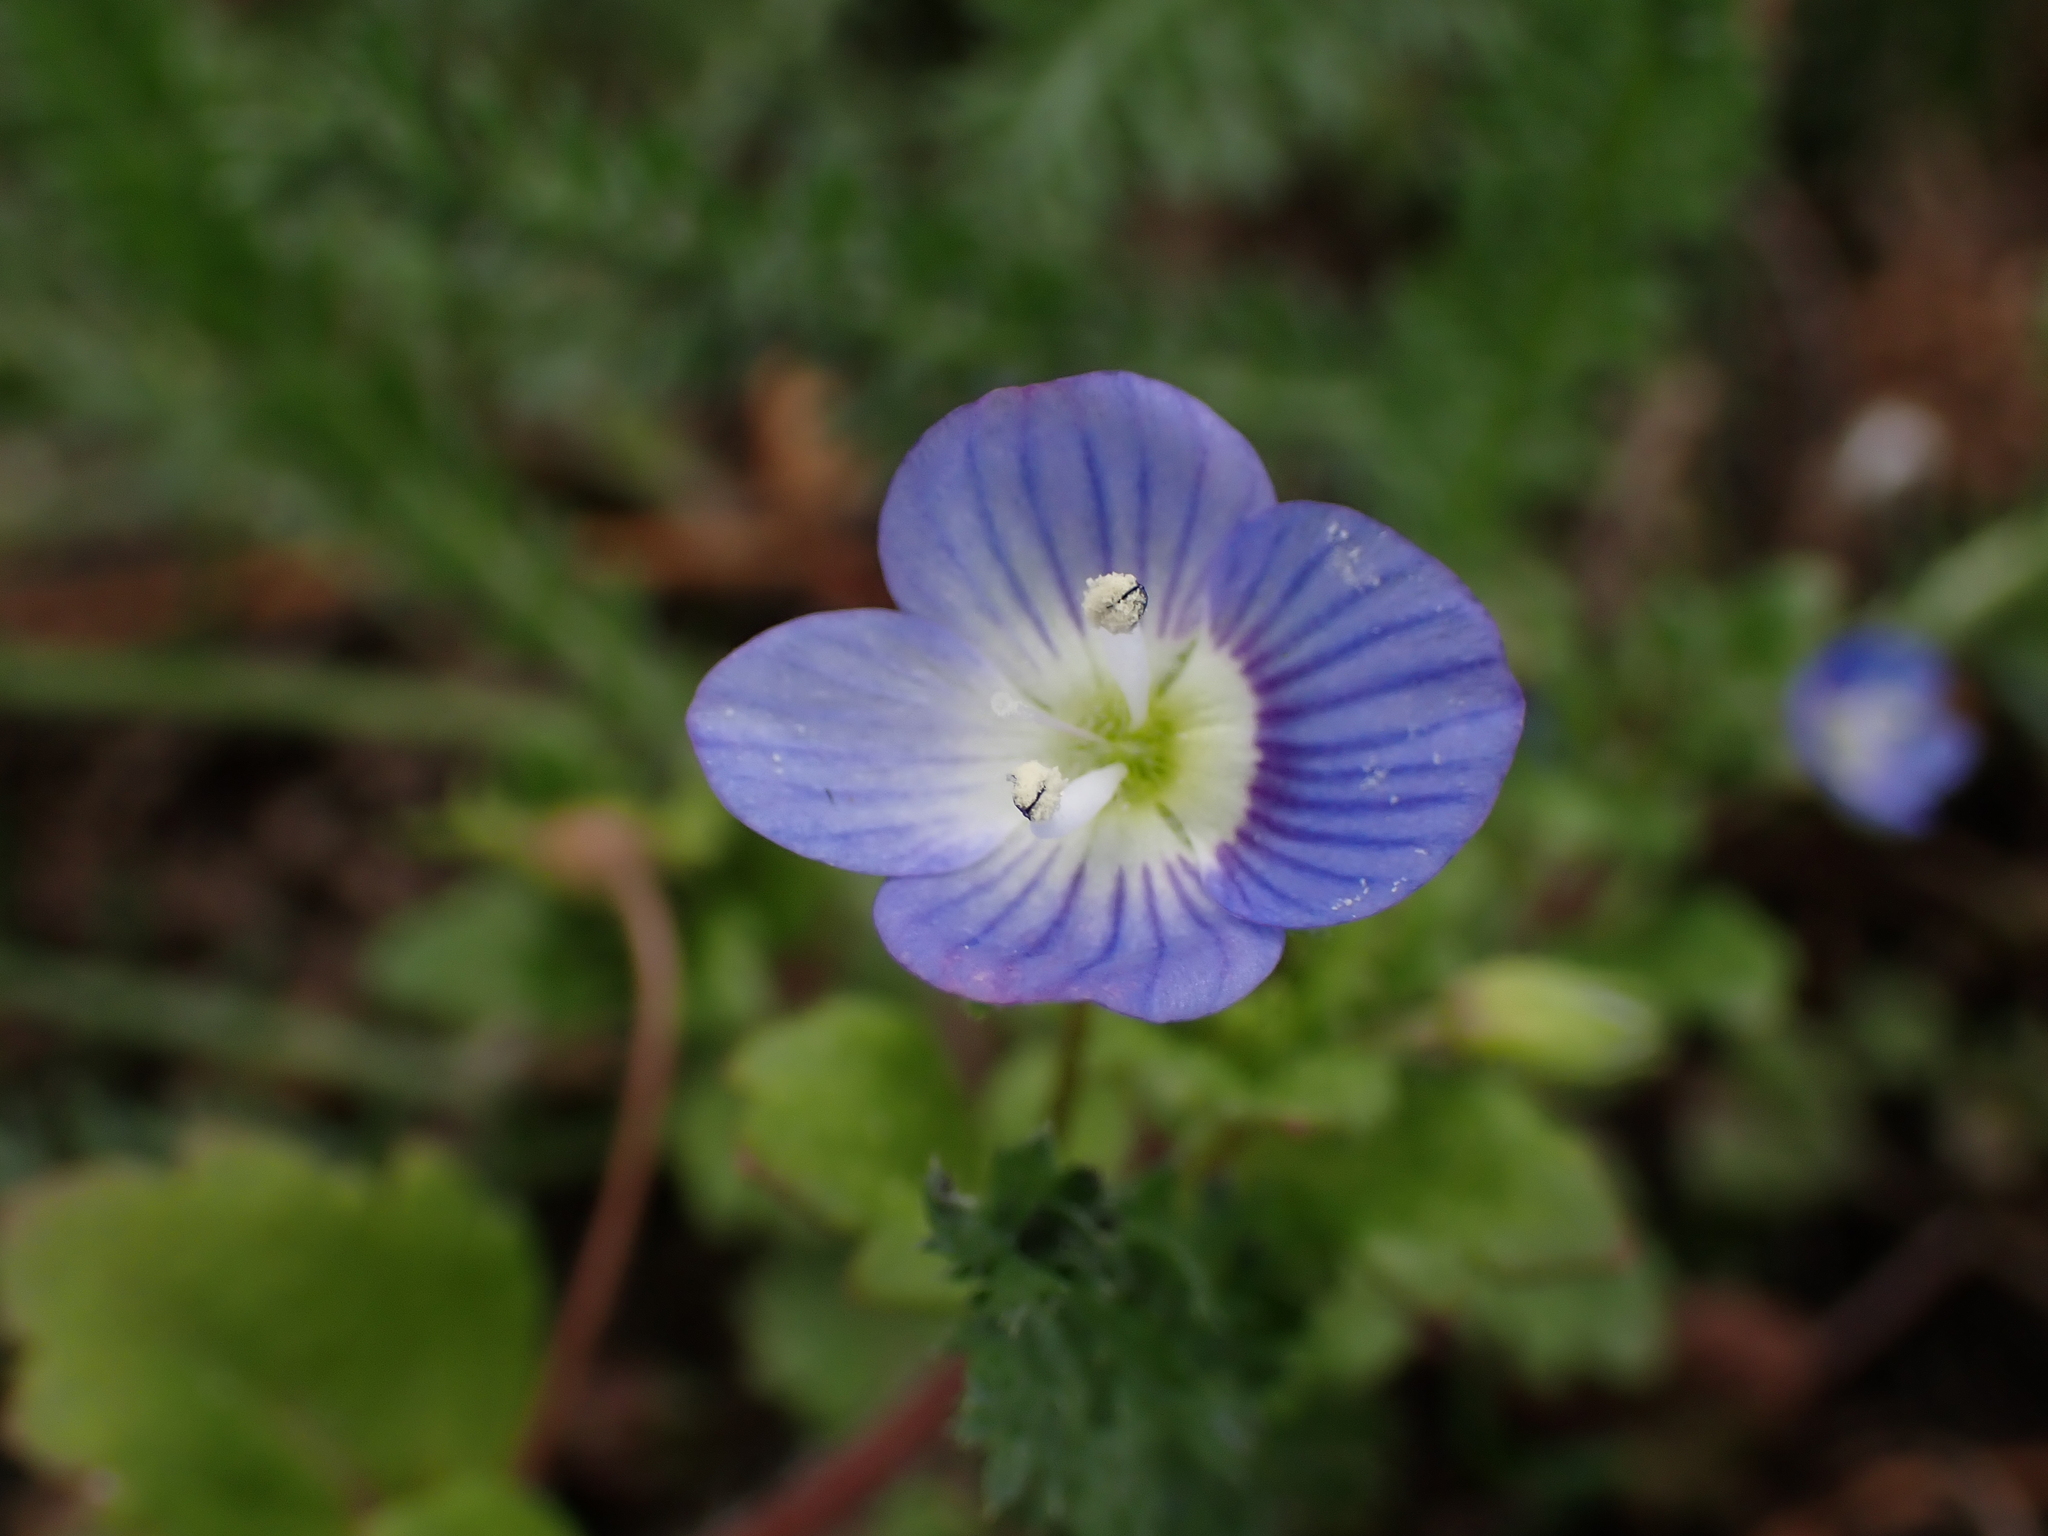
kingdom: Plantae
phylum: Tracheophyta
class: Magnoliopsida
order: Lamiales
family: Plantaginaceae
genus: Veronica
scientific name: Veronica persica
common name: Common field-speedwell
